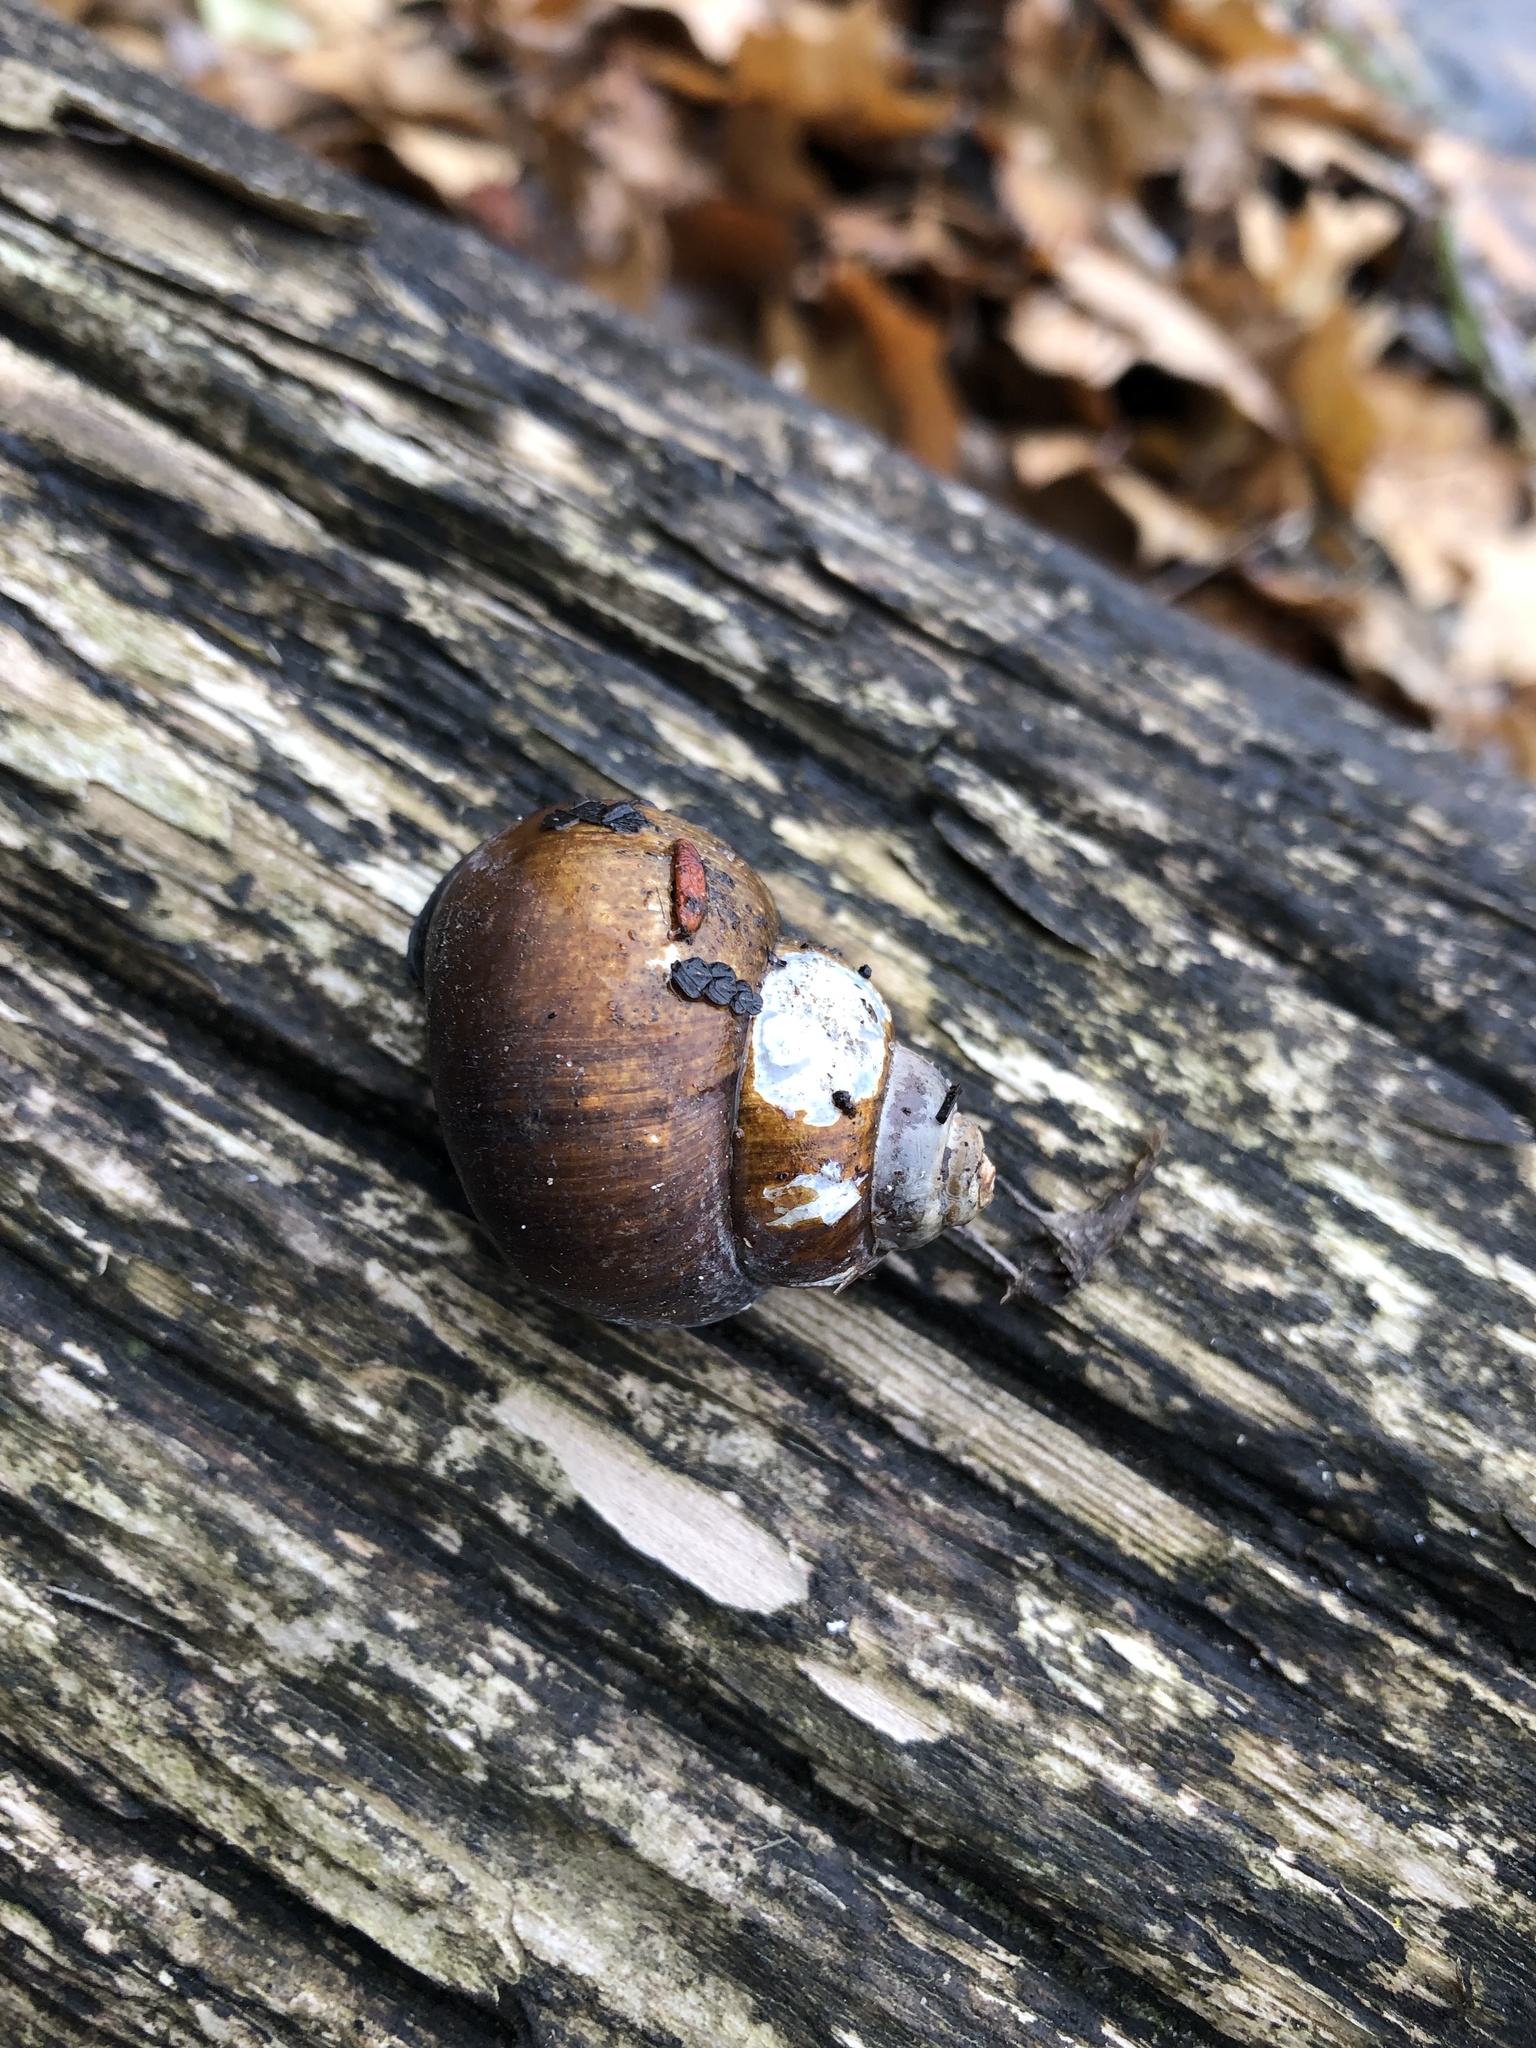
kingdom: Animalia
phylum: Mollusca
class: Gastropoda
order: Architaenioglossa
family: Viviparidae
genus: Cipangopaludina
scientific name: Cipangopaludina chinensis
